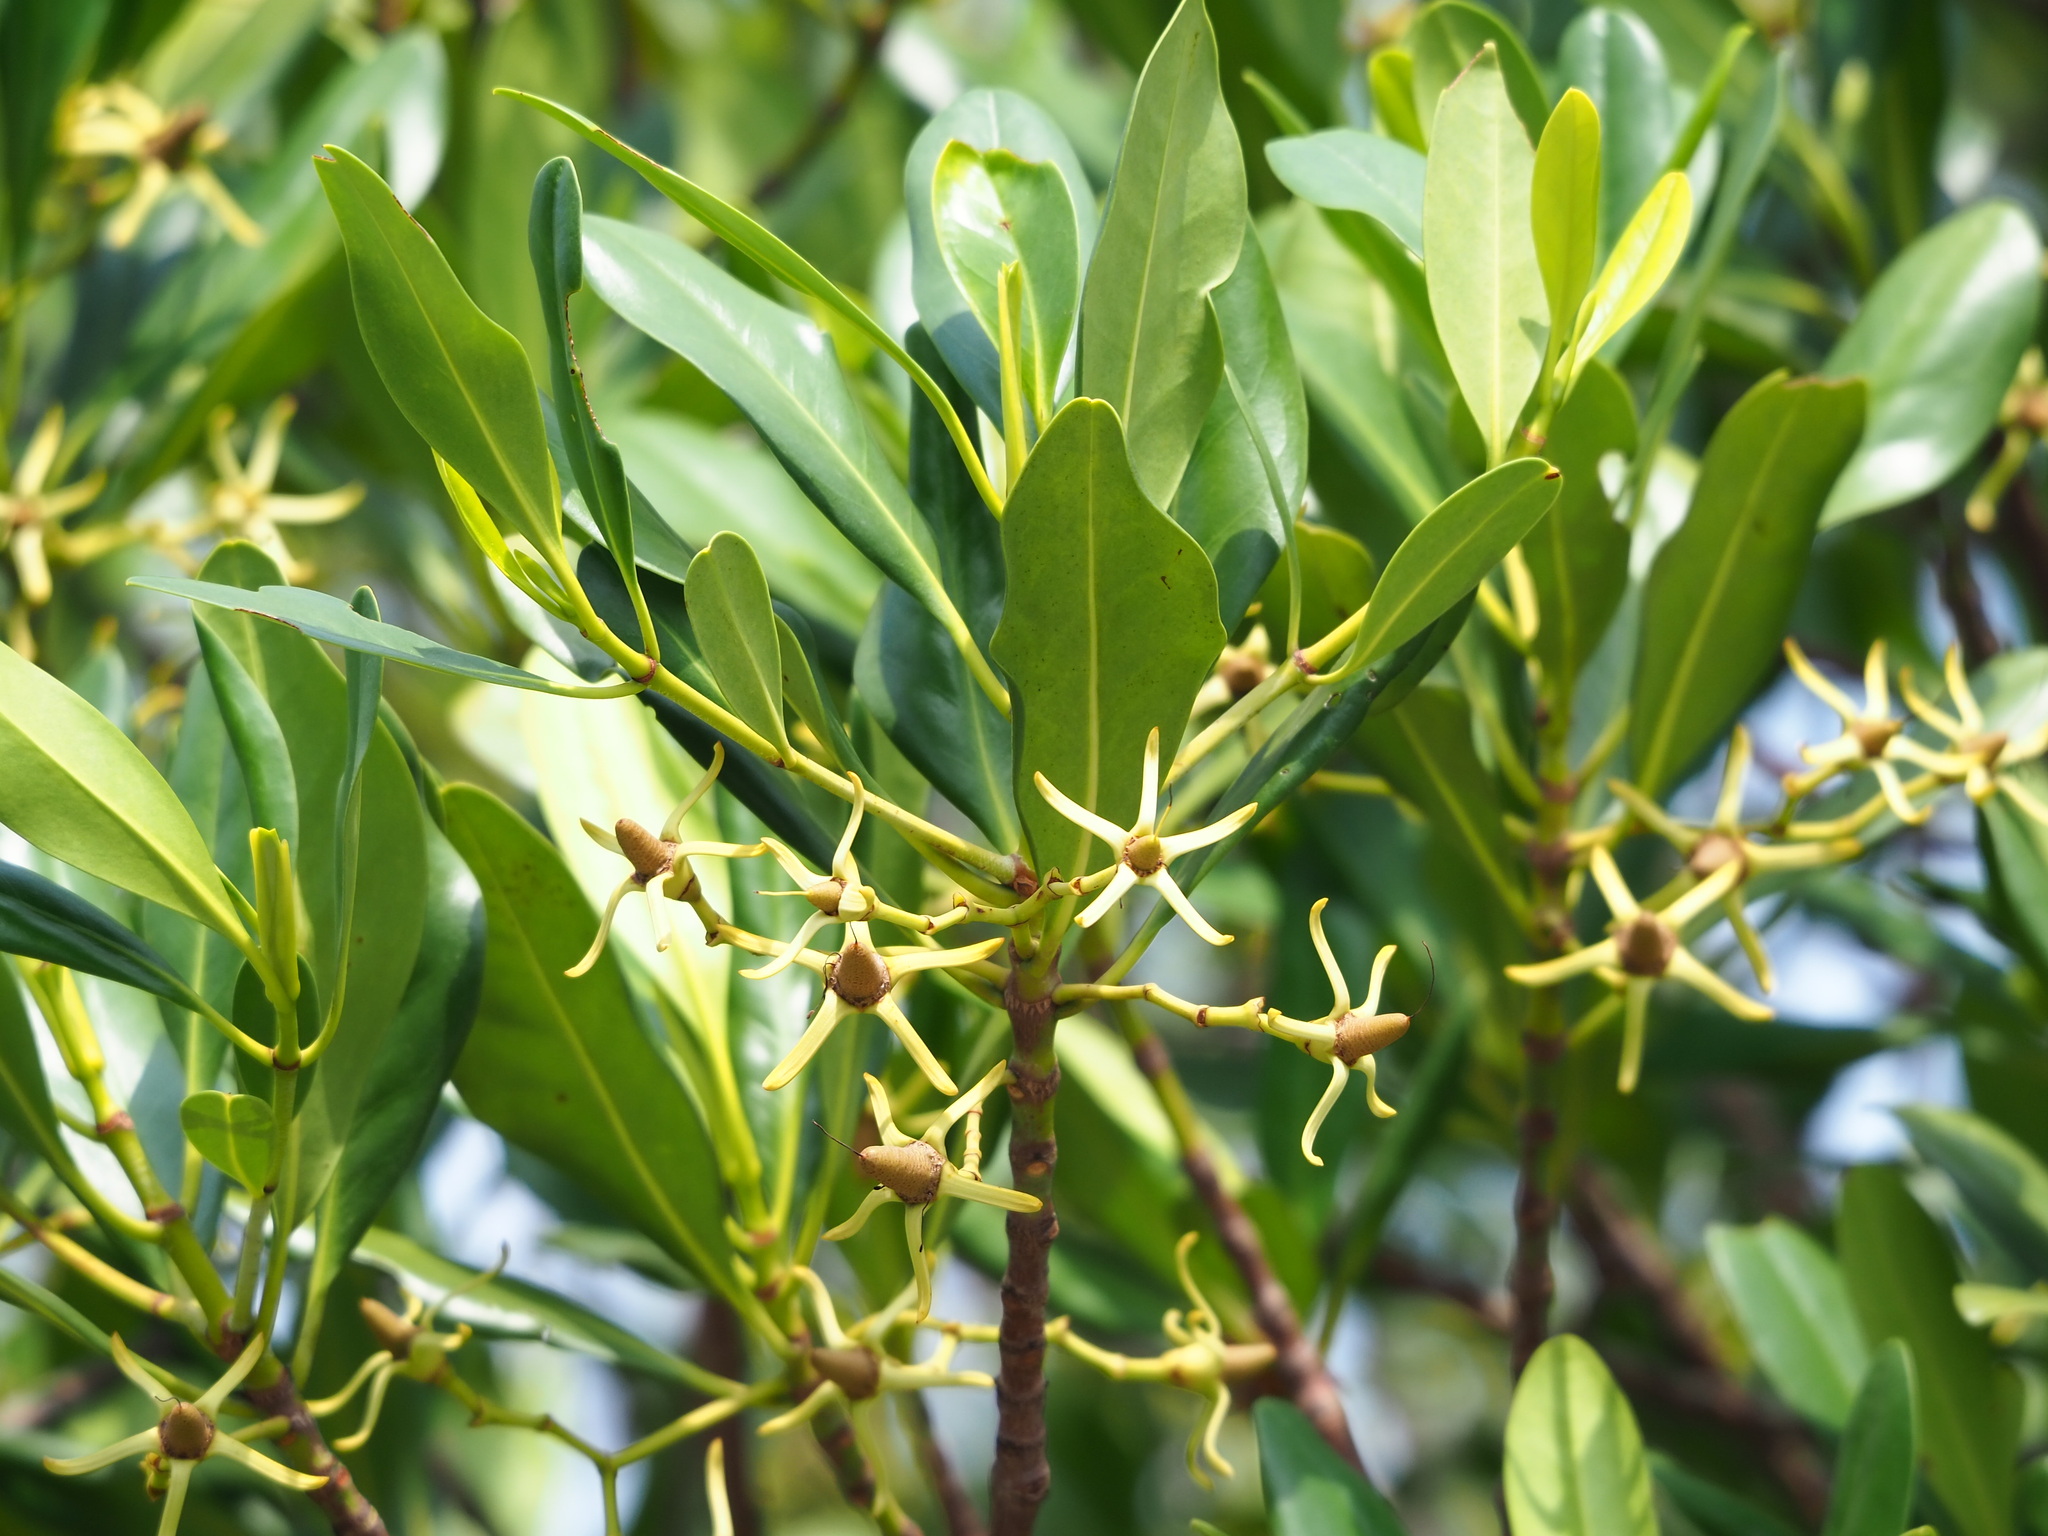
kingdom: Plantae
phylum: Tracheophyta
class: Magnoliopsida
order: Malpighiales
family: Rhizophoraceae
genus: Kandelia
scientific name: Kandelia obovata
